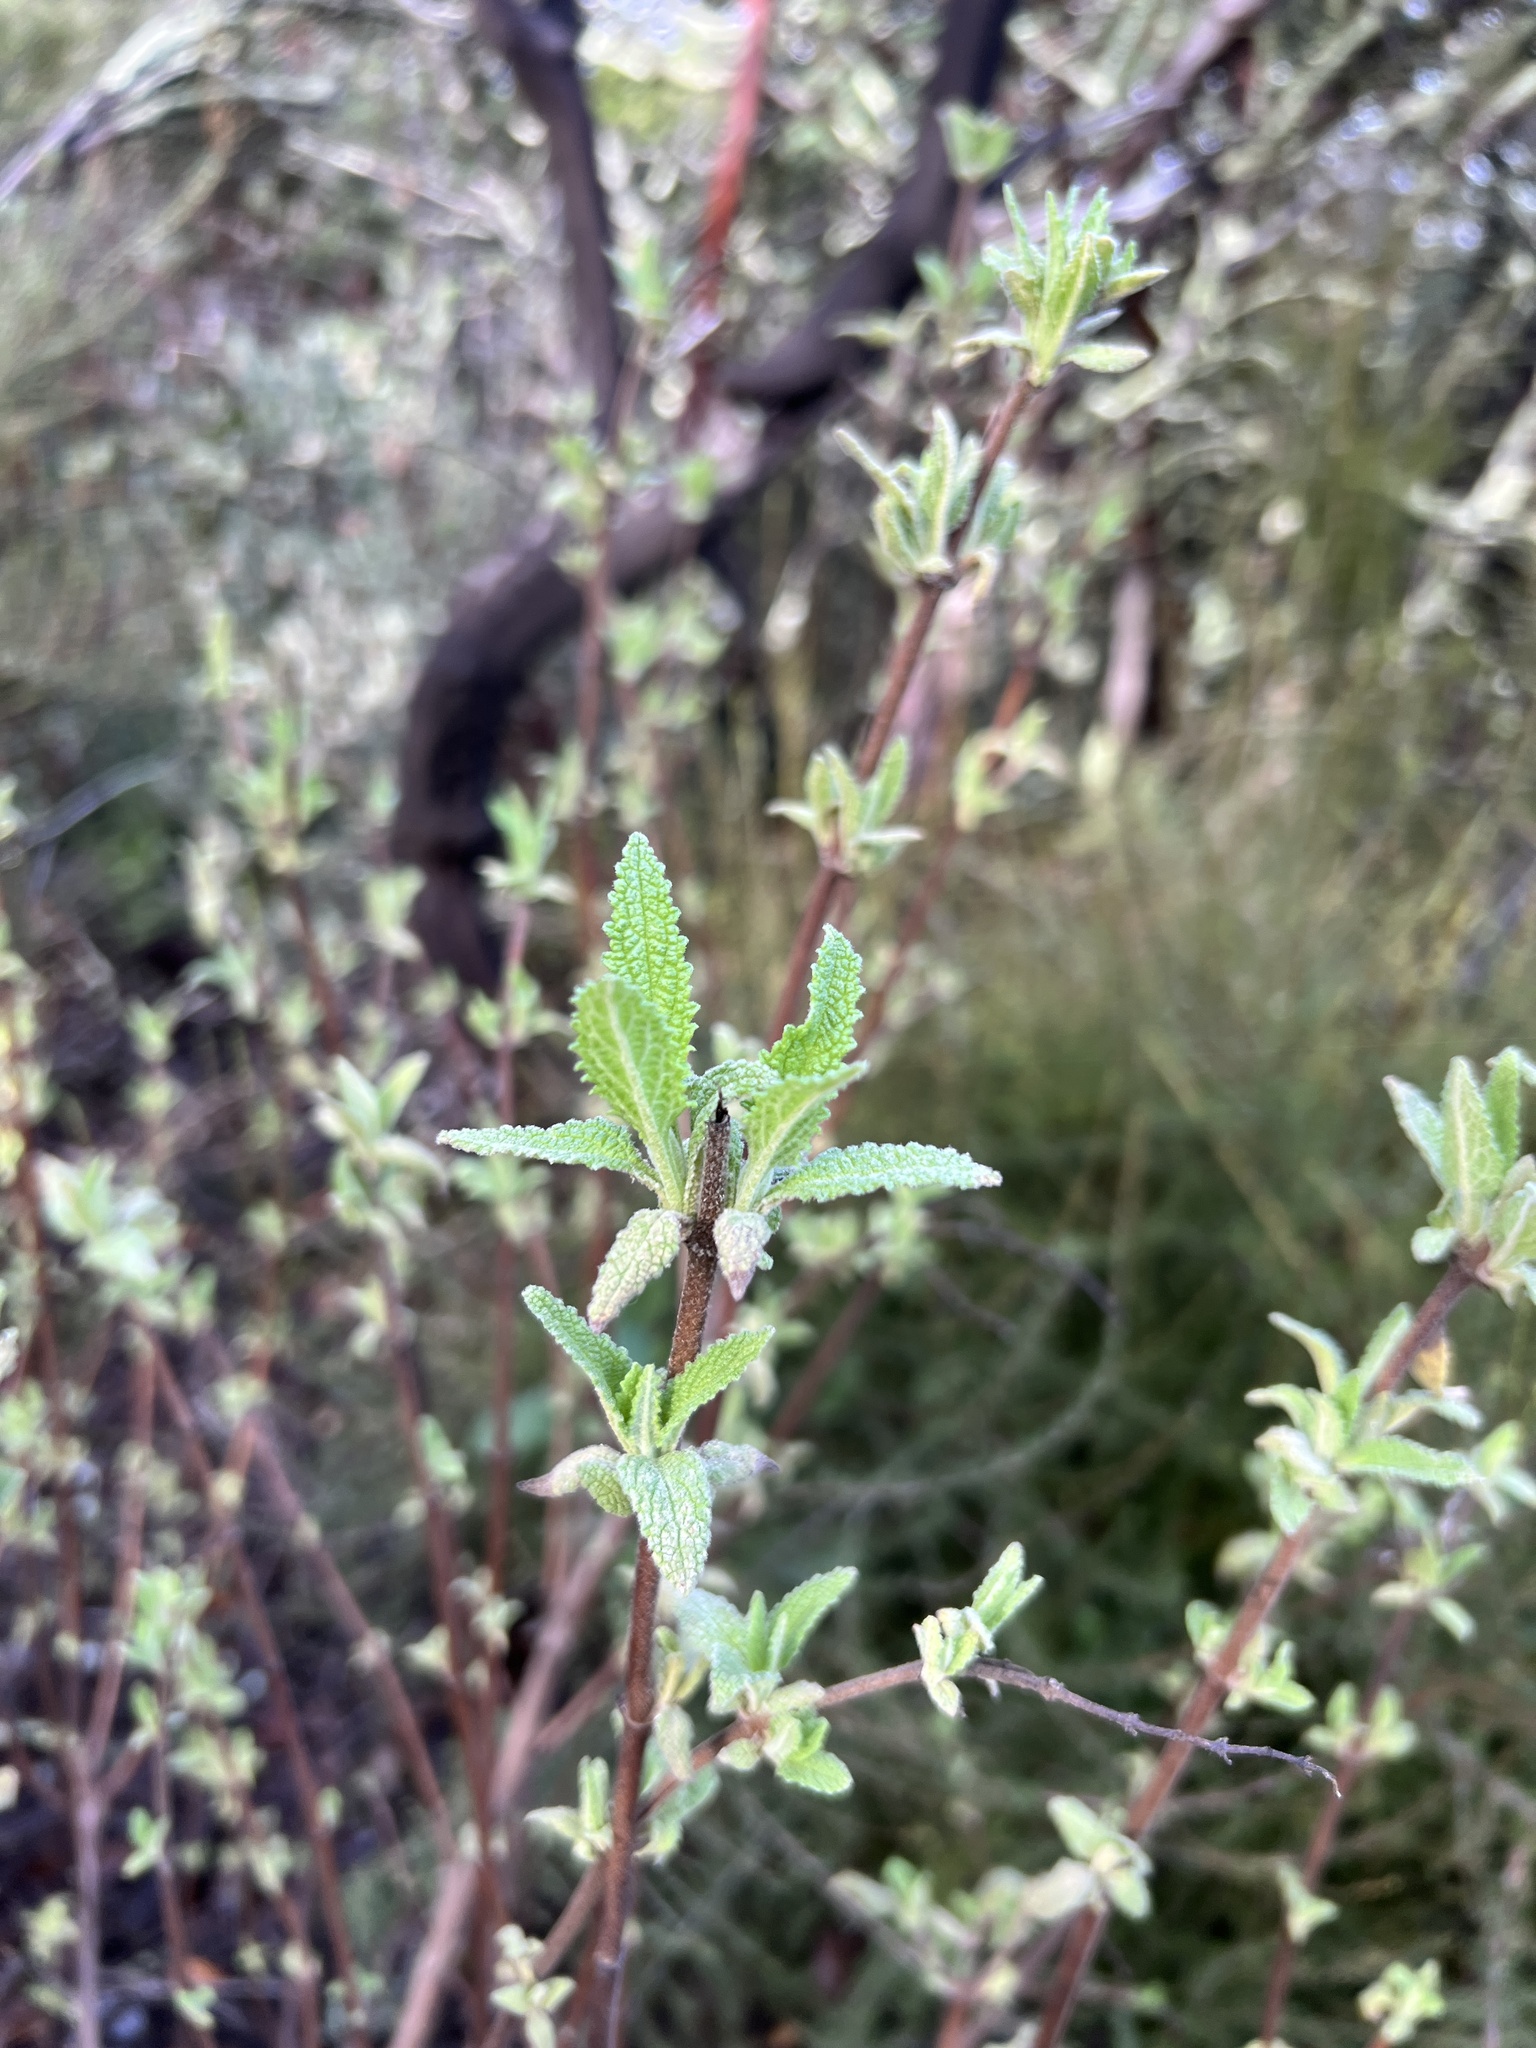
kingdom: Plantae
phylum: Tracheophyta
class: Magnoliopsida
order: Lamiales
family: Lamiaceae
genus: Lepechinia
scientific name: Lepechinia calycina
